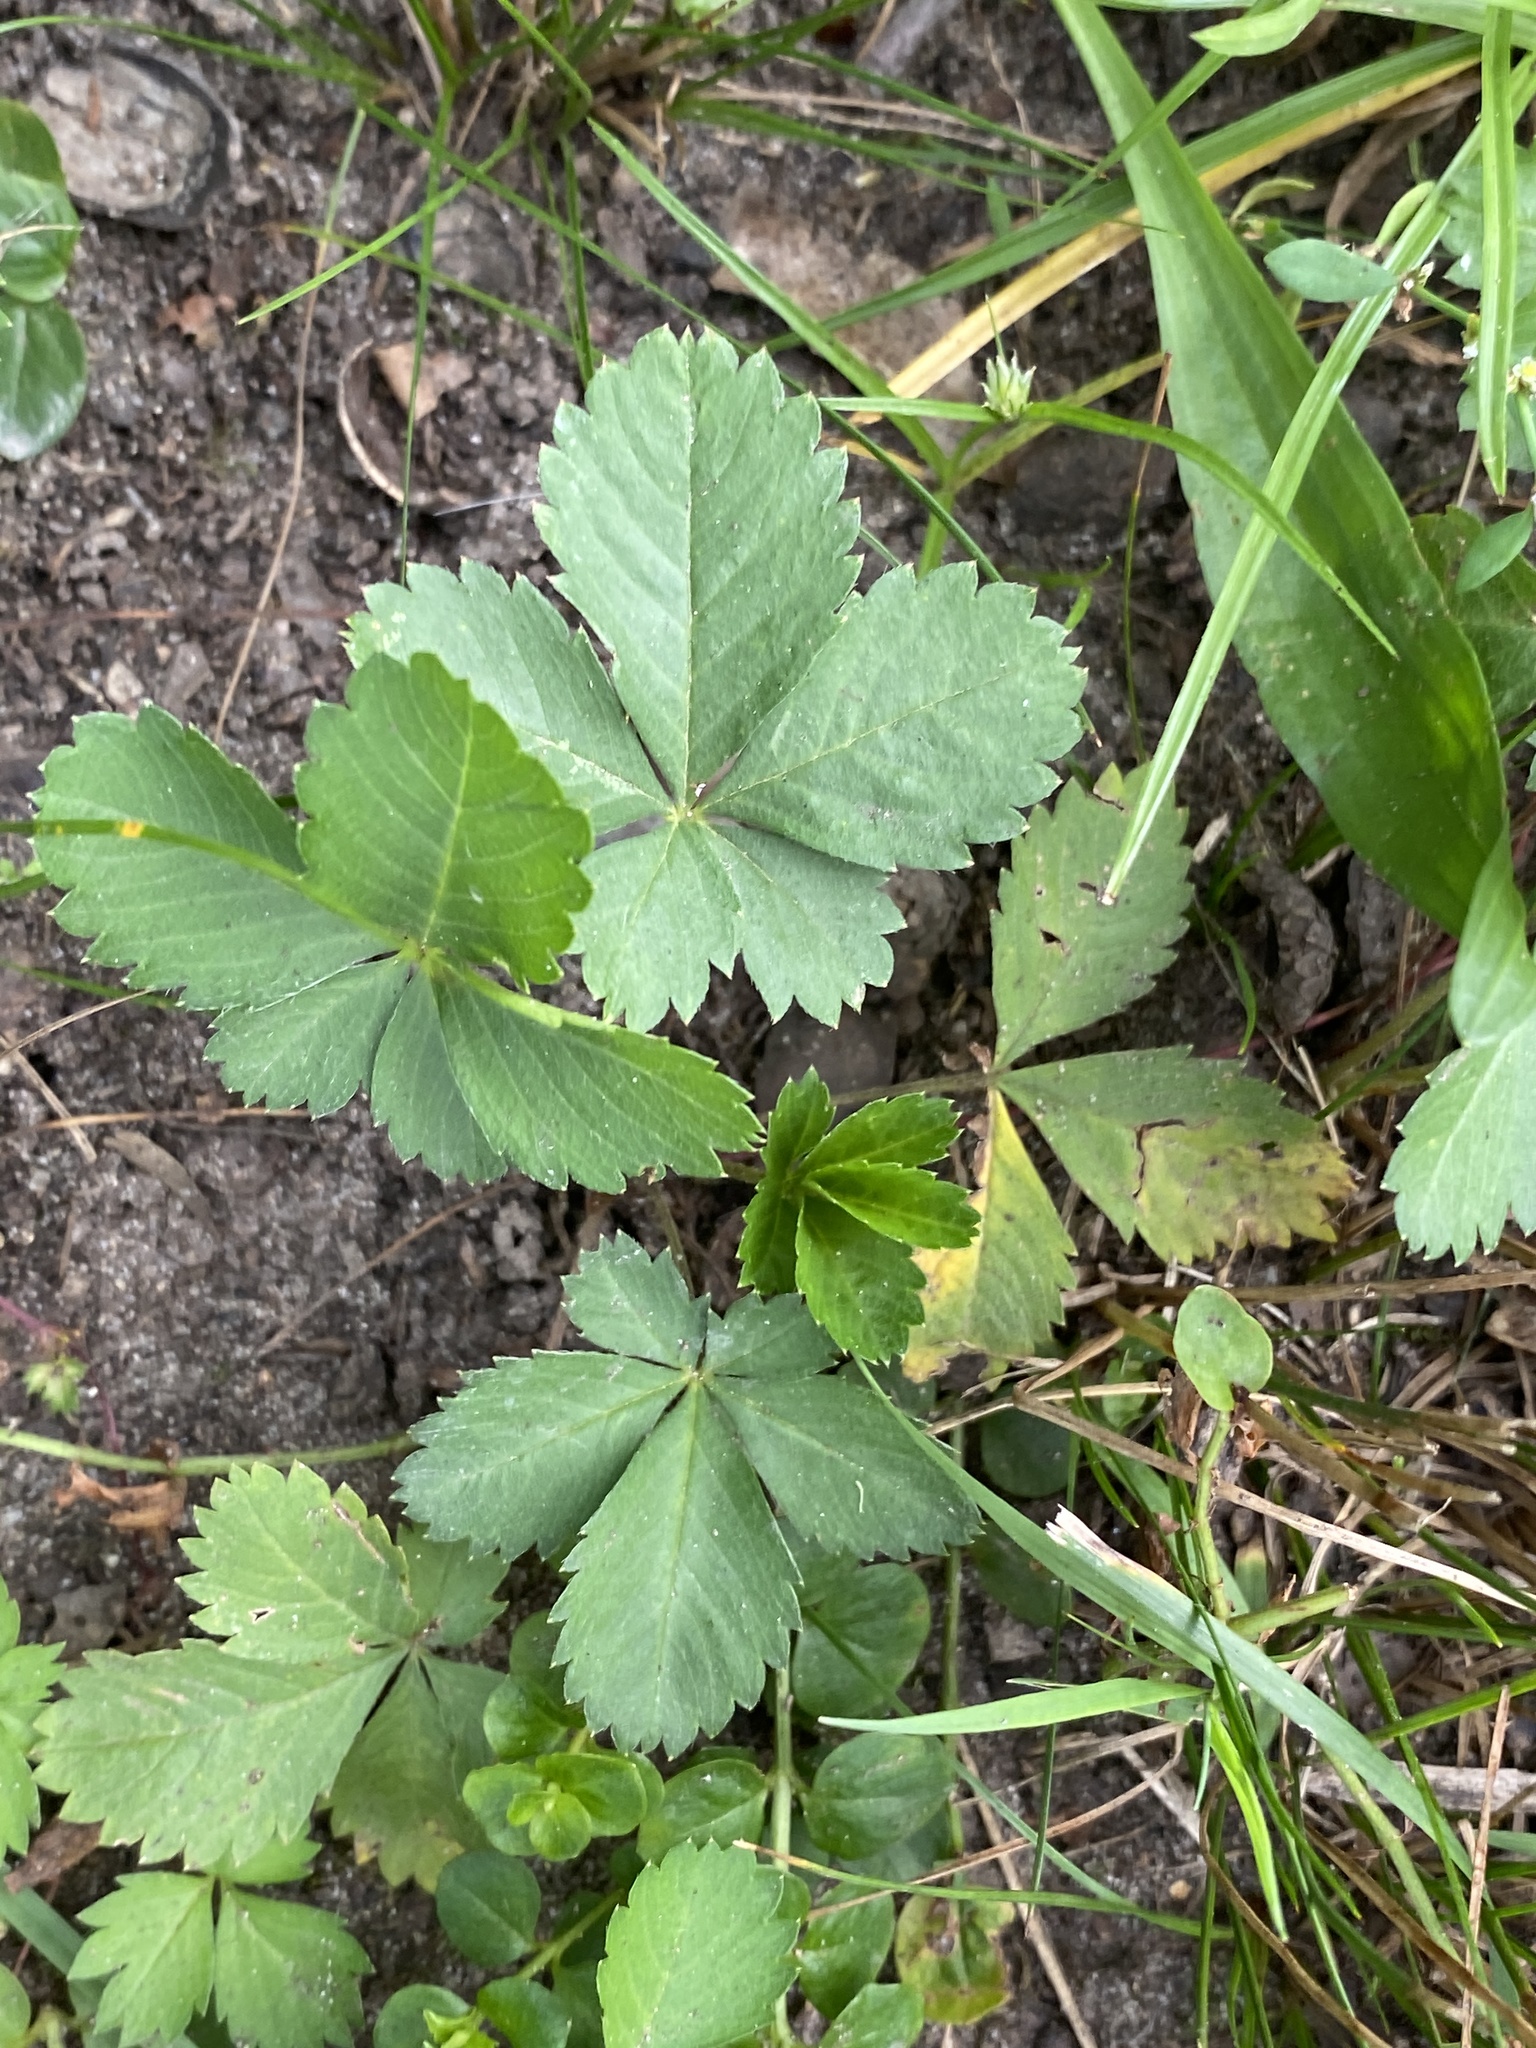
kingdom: Plantae
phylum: Tracheophyta
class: Magnoliopsida
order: Rosales
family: Rosaceae
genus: Potentilla
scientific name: Potentilla canadensis
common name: Canada cinquefoil
